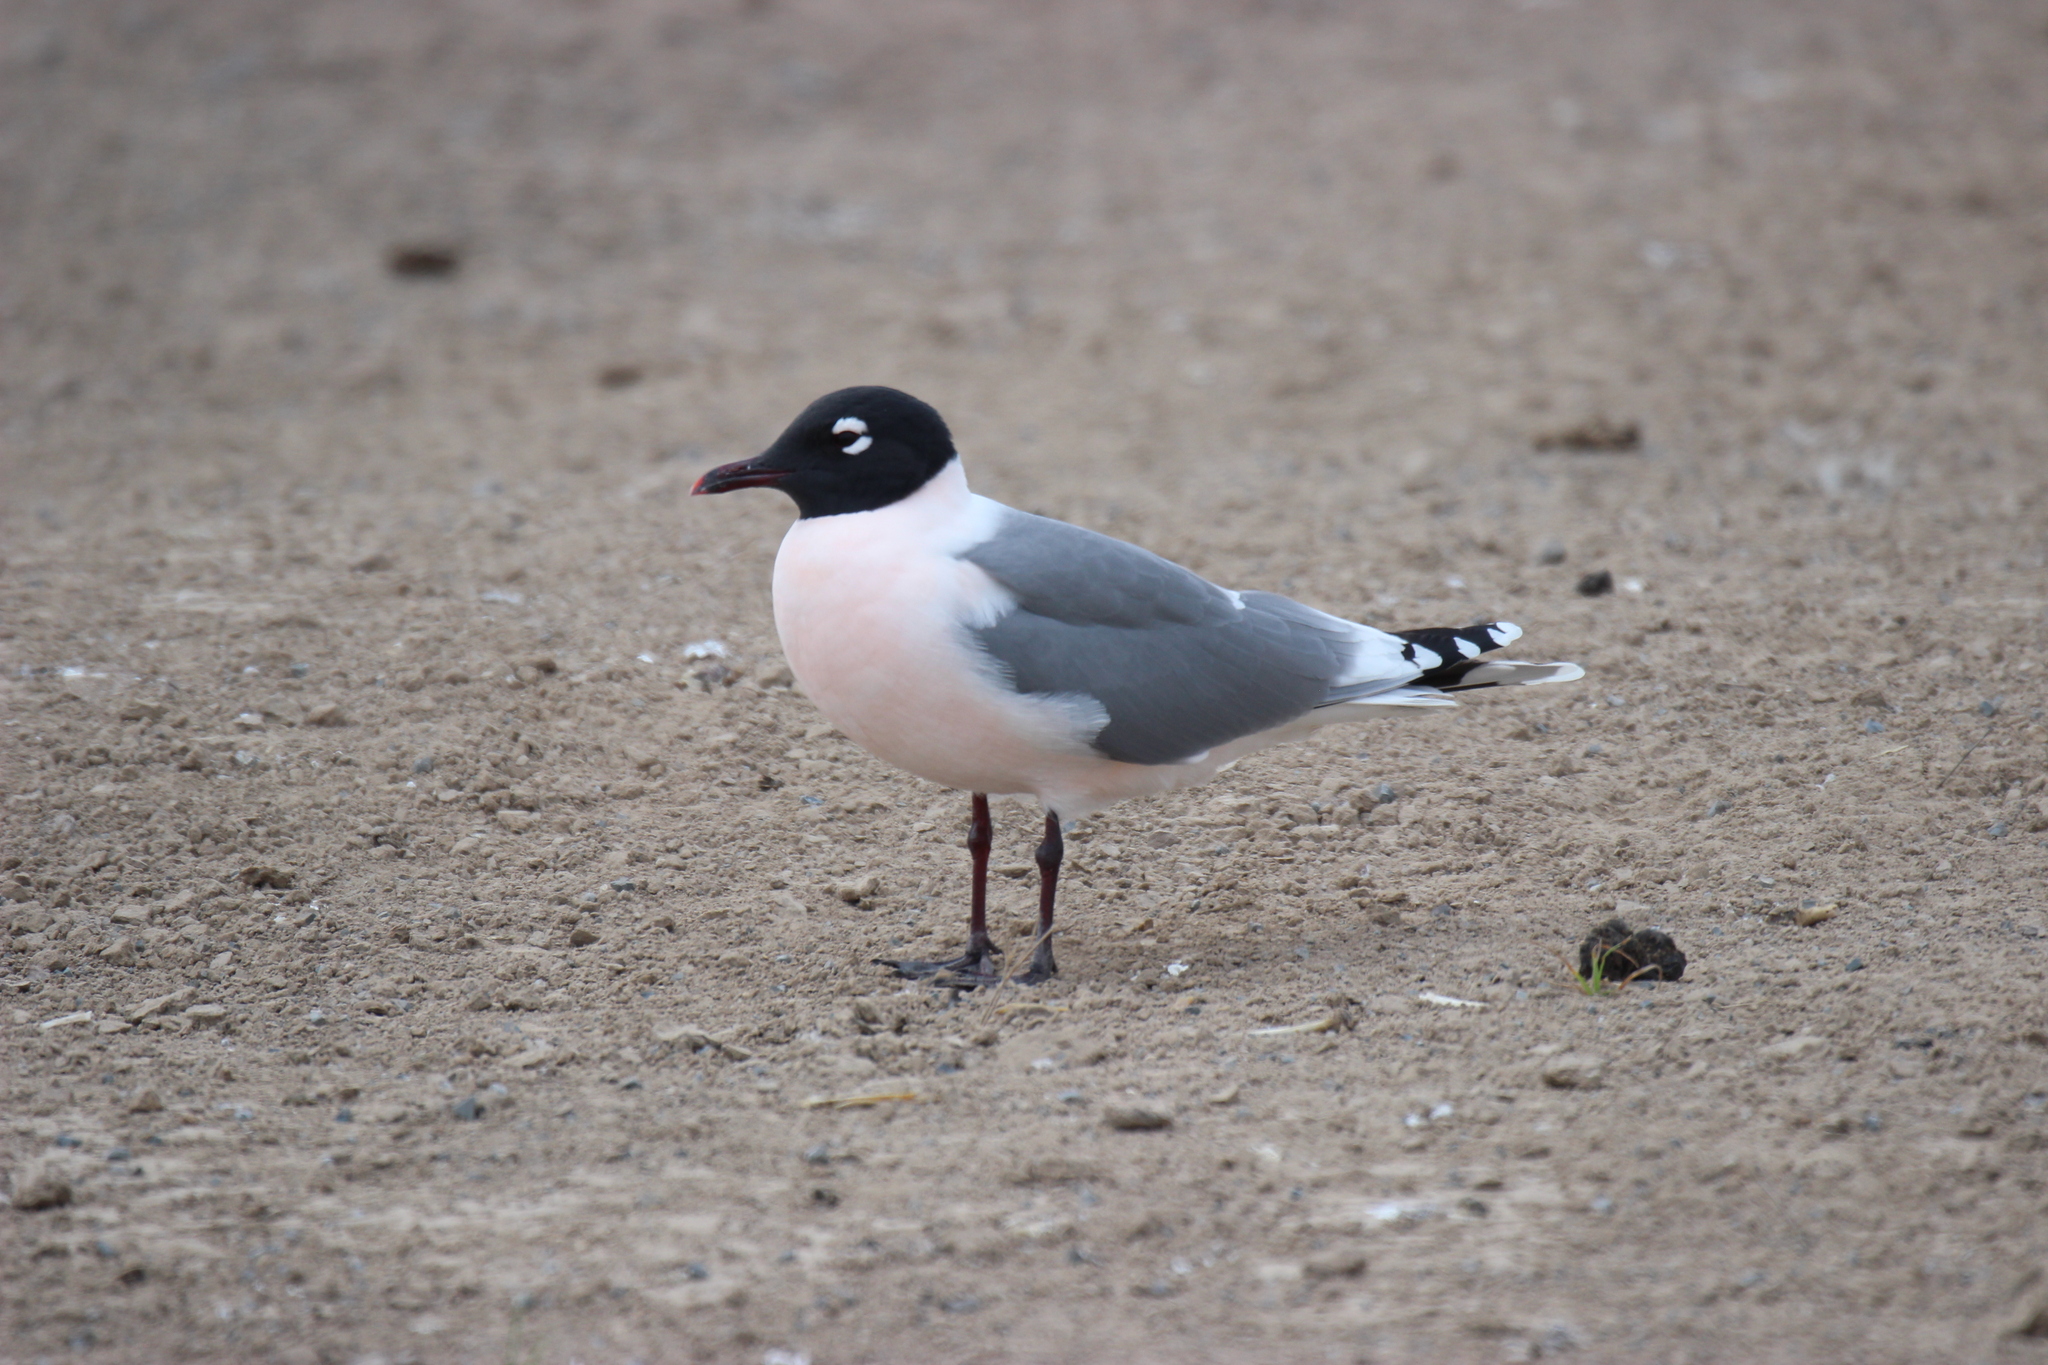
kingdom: Animalia
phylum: Chordata
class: Aves
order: Charadriiformes
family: Laridae
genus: Leucophaeus
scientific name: Leucophaeus pipixcan
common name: Franklin's gull
